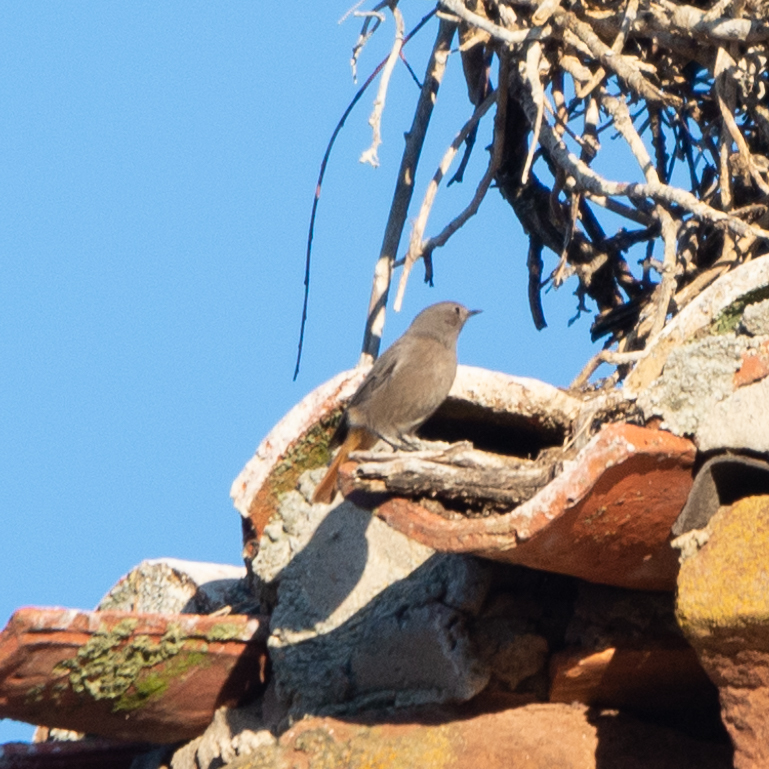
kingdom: Animalia
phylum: Chordata
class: Aves
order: Passeriformes
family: Muscicapidae
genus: Phoenicurus
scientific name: Phoenicurus phoenicurus
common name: Common redstart
